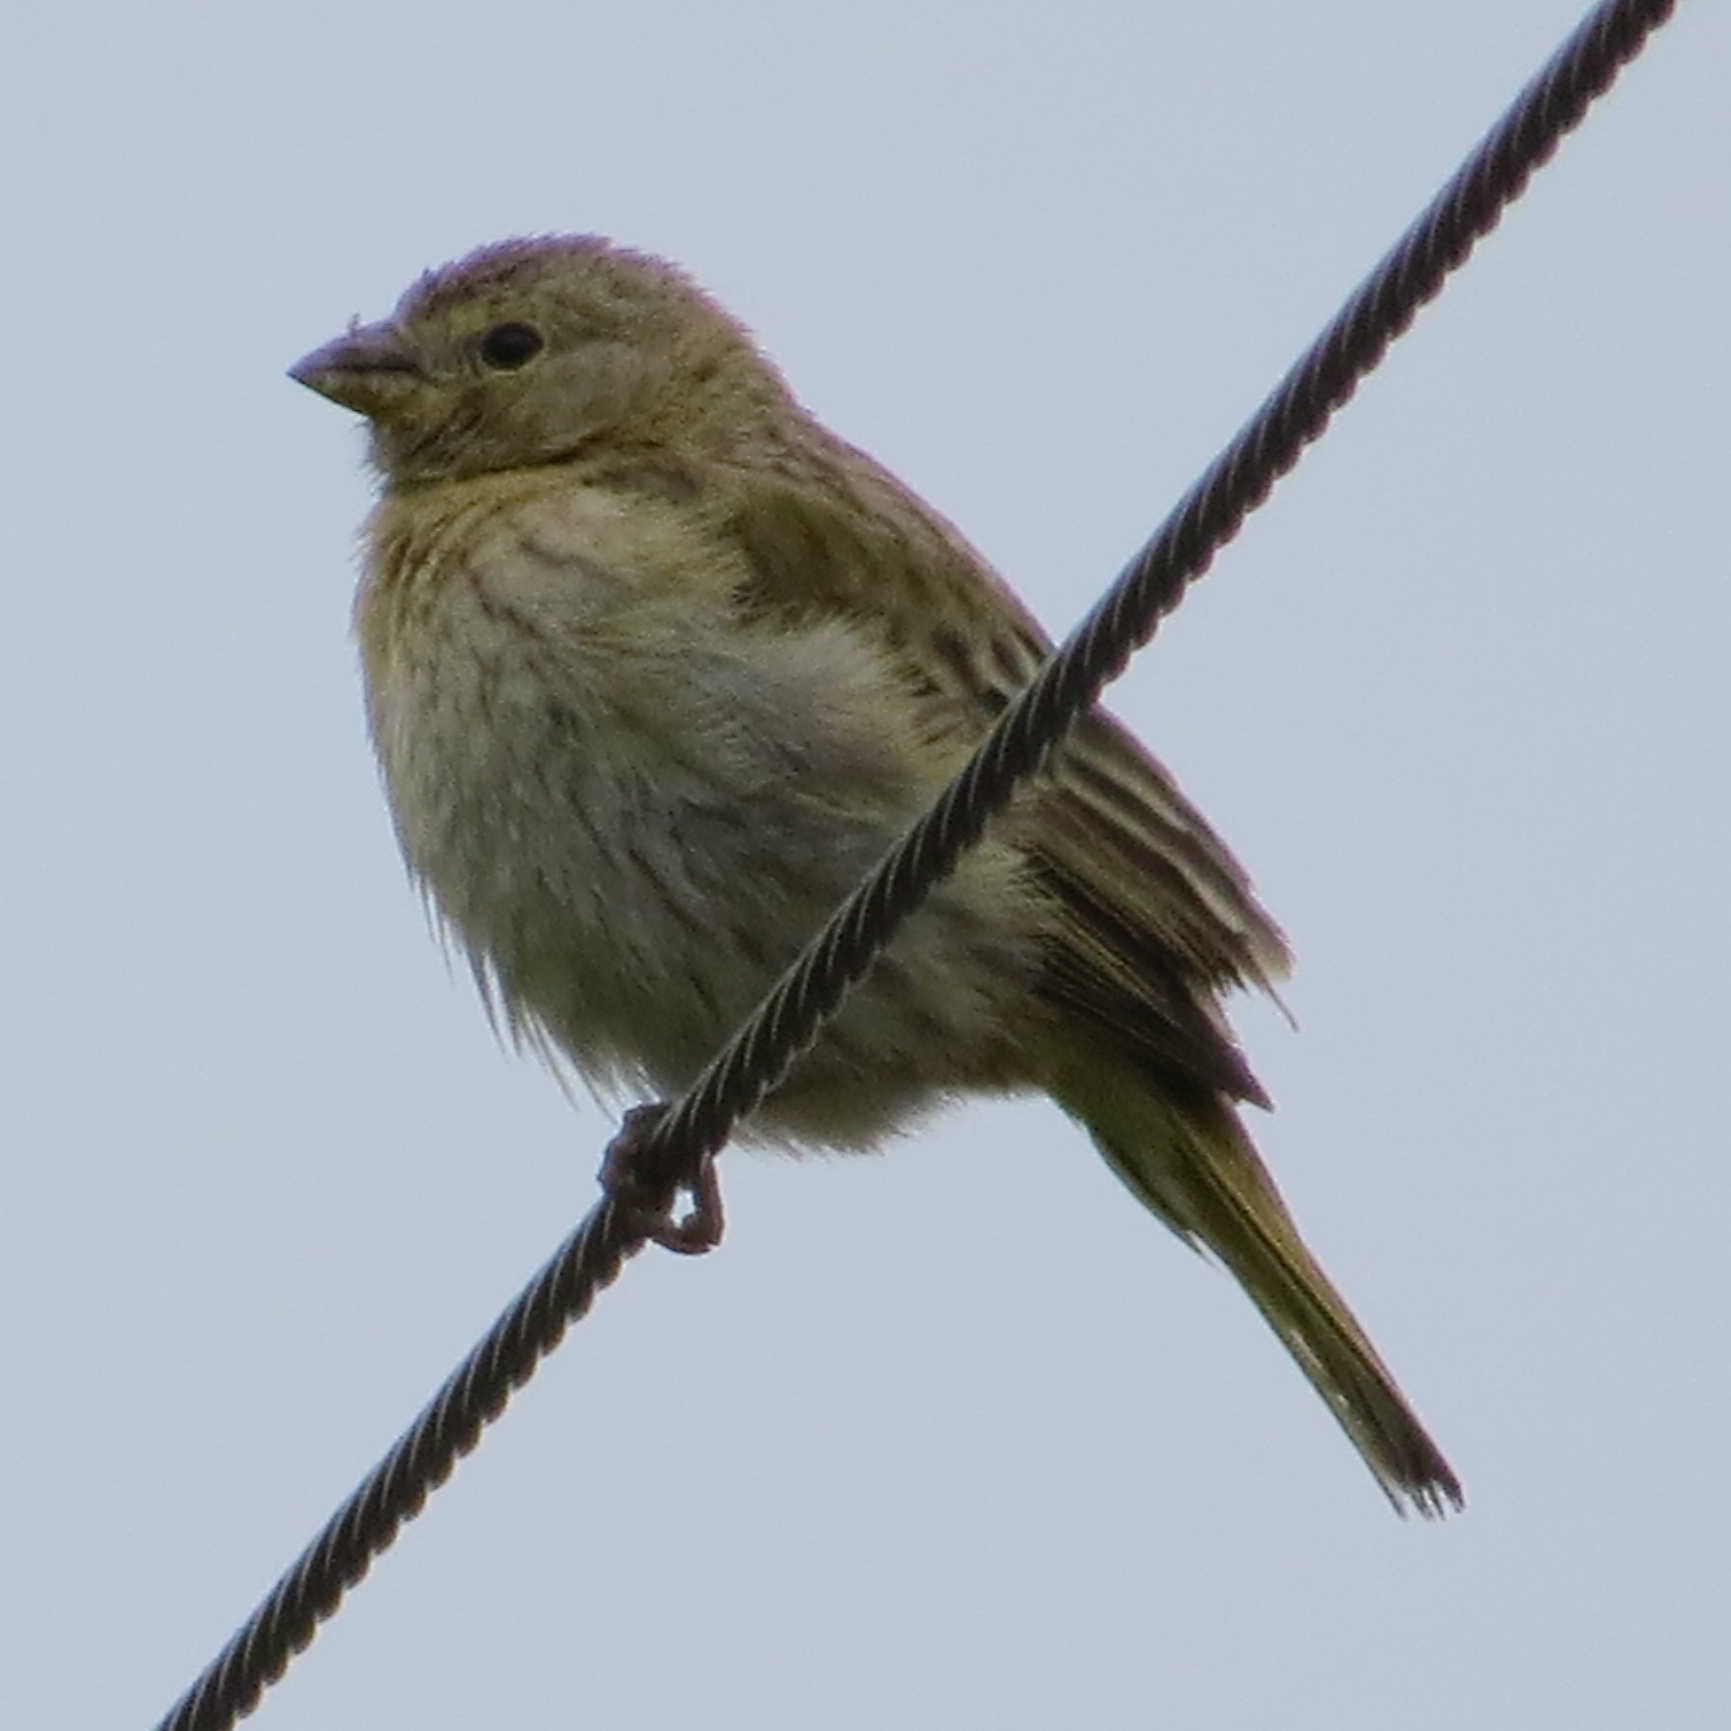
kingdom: Animalia
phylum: Chordata
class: Aves
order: Passeriformes
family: Thraupidae
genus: Sicalis
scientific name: Sicalis flaveola
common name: Saffron finch
